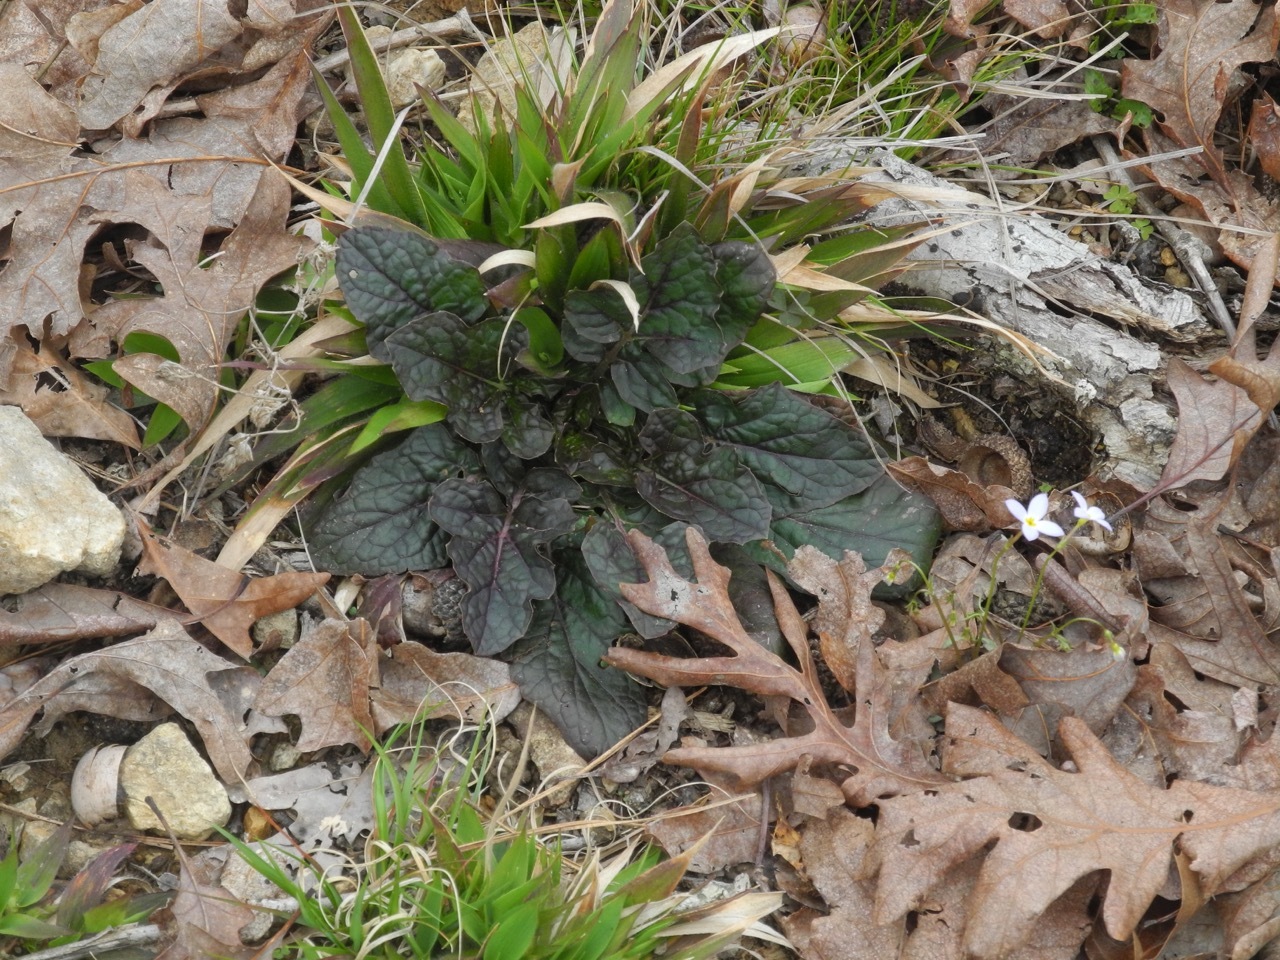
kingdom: Plantae
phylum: Tracheophyta
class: Magnoliopsida
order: Lamiales
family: Lamiaceae
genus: Salvia
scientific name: Salvia lyrata
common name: Cancerweed
